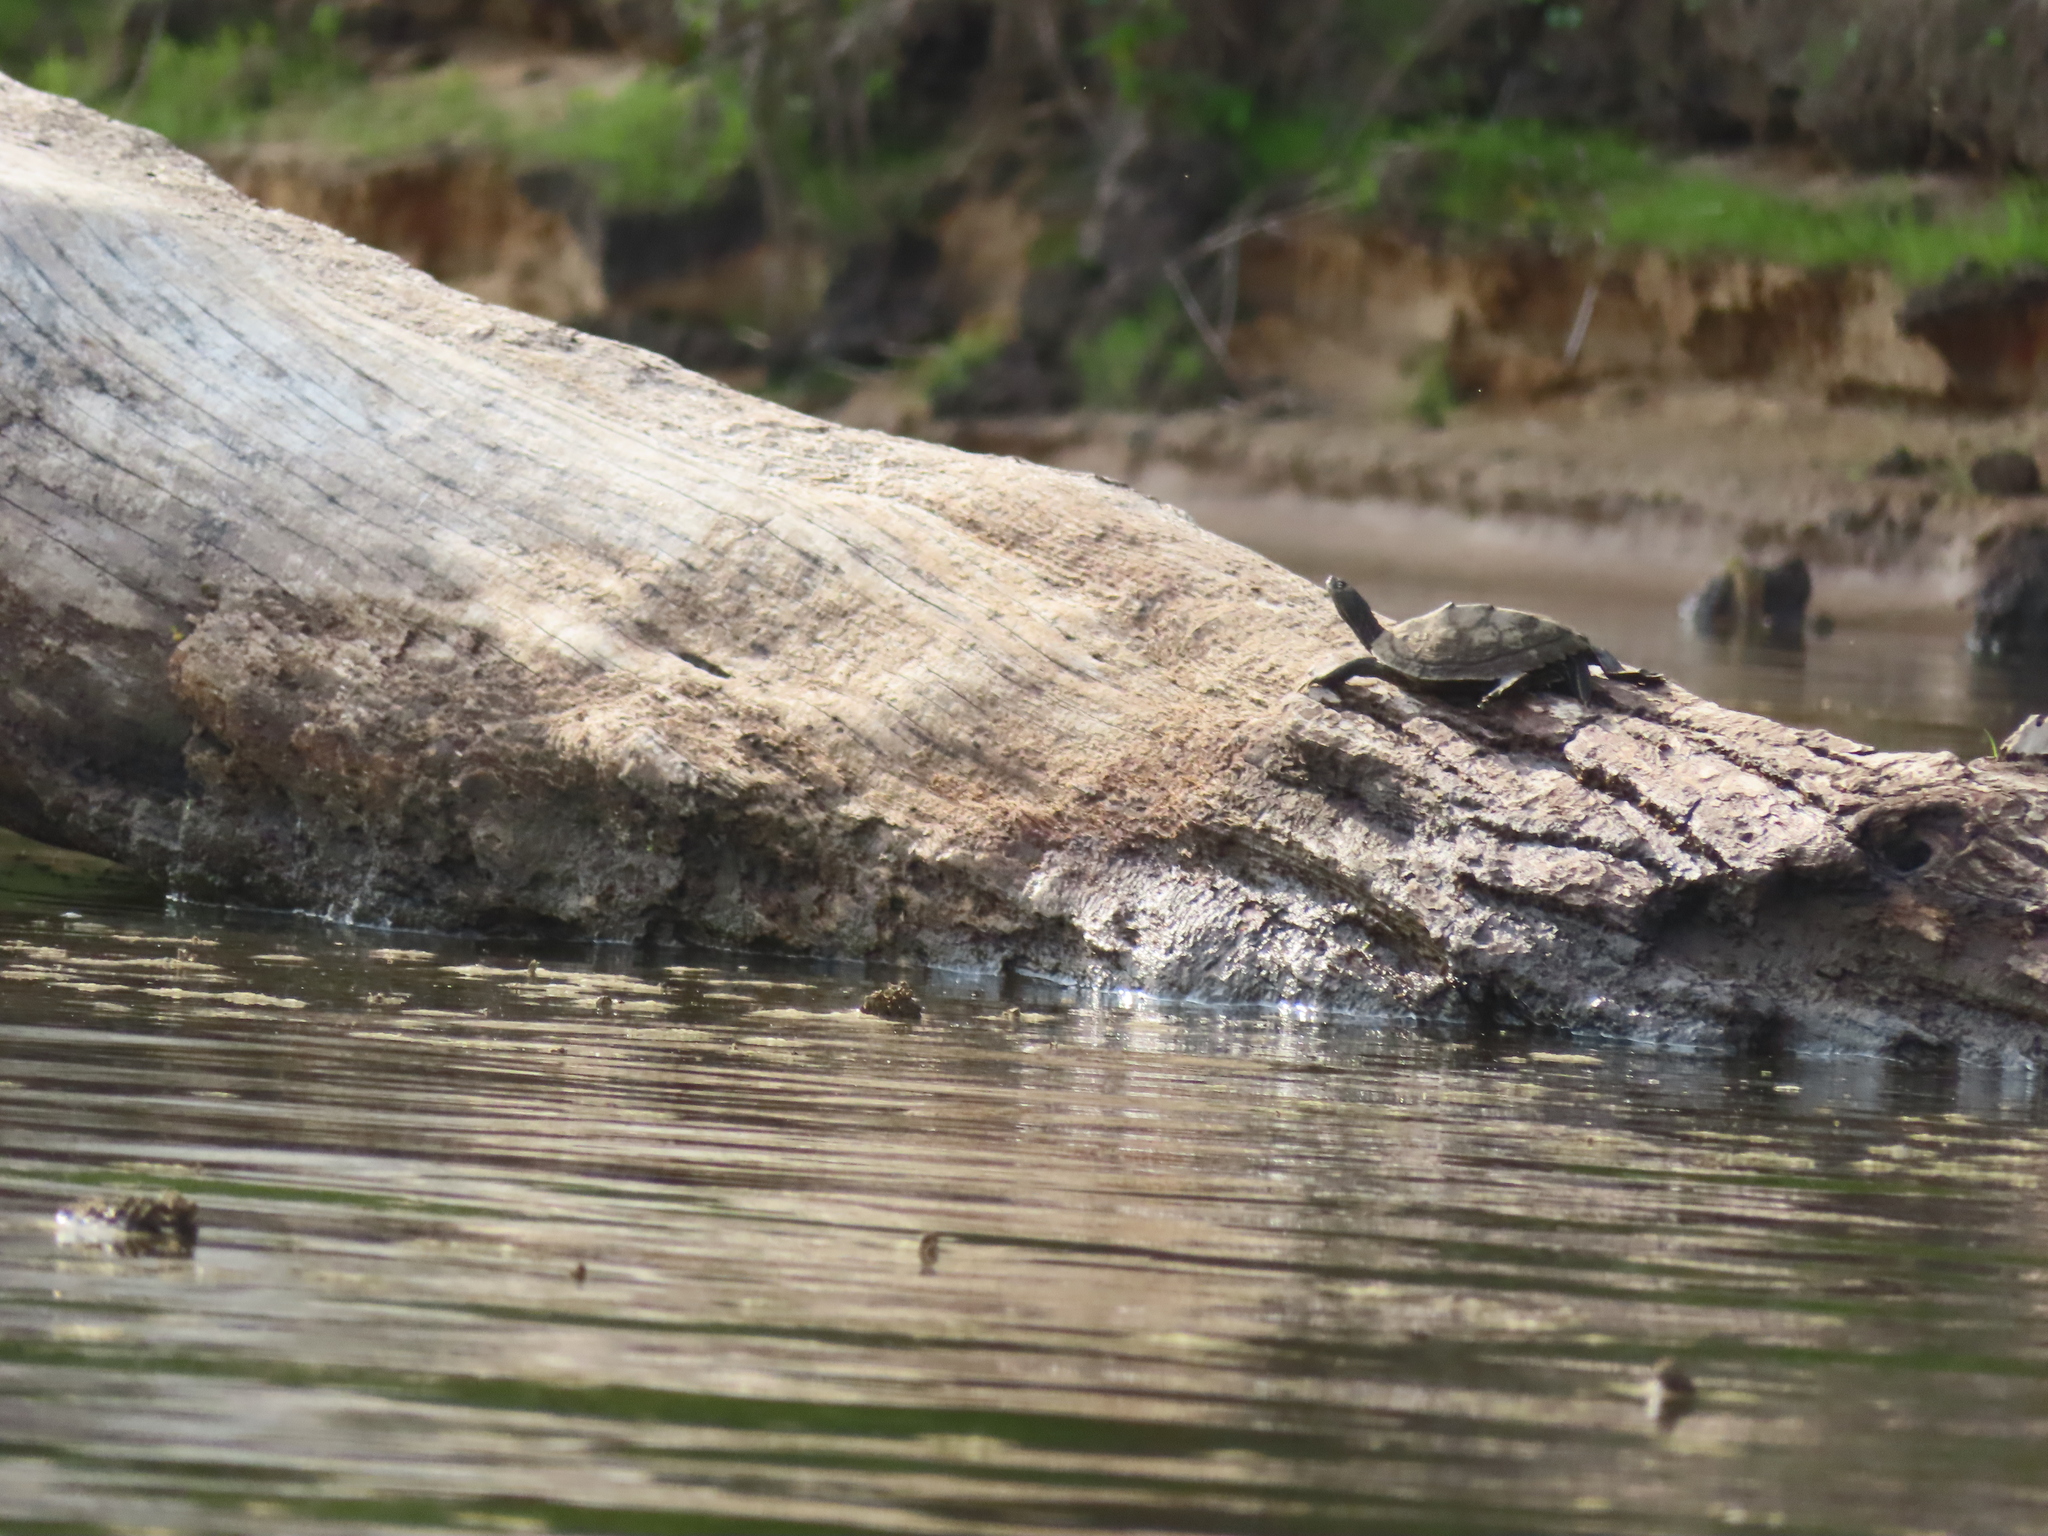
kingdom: Animalia
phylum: Chordata
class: Testudines
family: Emydidae
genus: Graptemys
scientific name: Graptemys pseudogeographica
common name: False map turtle
